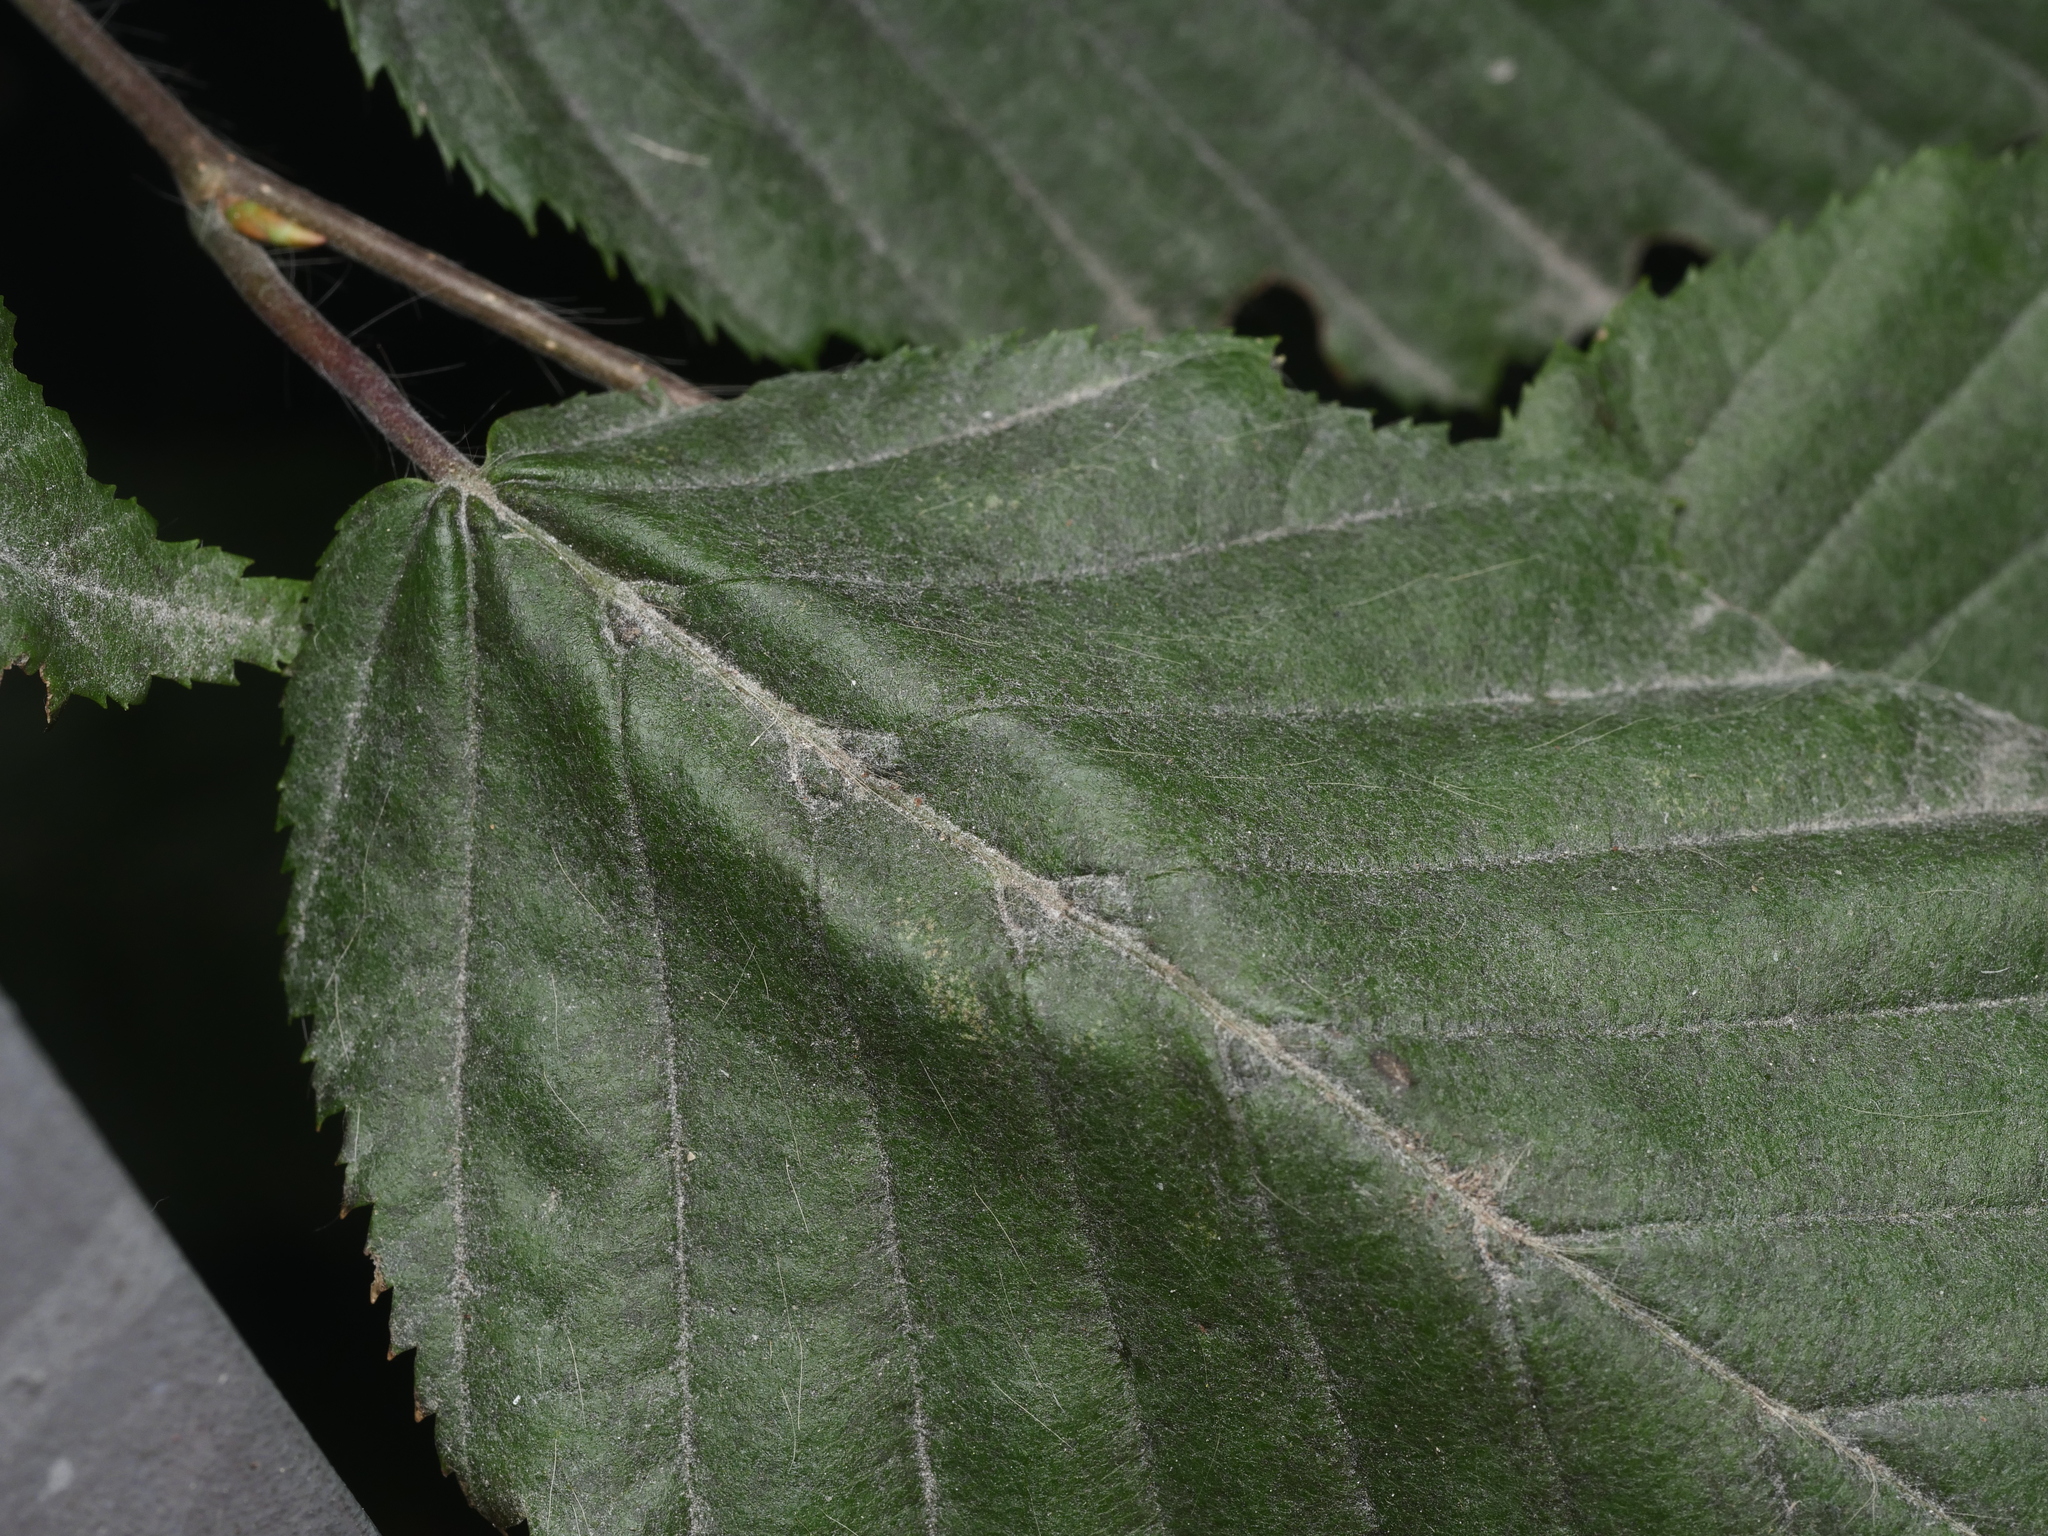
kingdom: Animalia
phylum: Arthropoda
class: Arachnida
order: Trombidiformes
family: Eriophyidae
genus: Aceria
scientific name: Aceria tenellus
